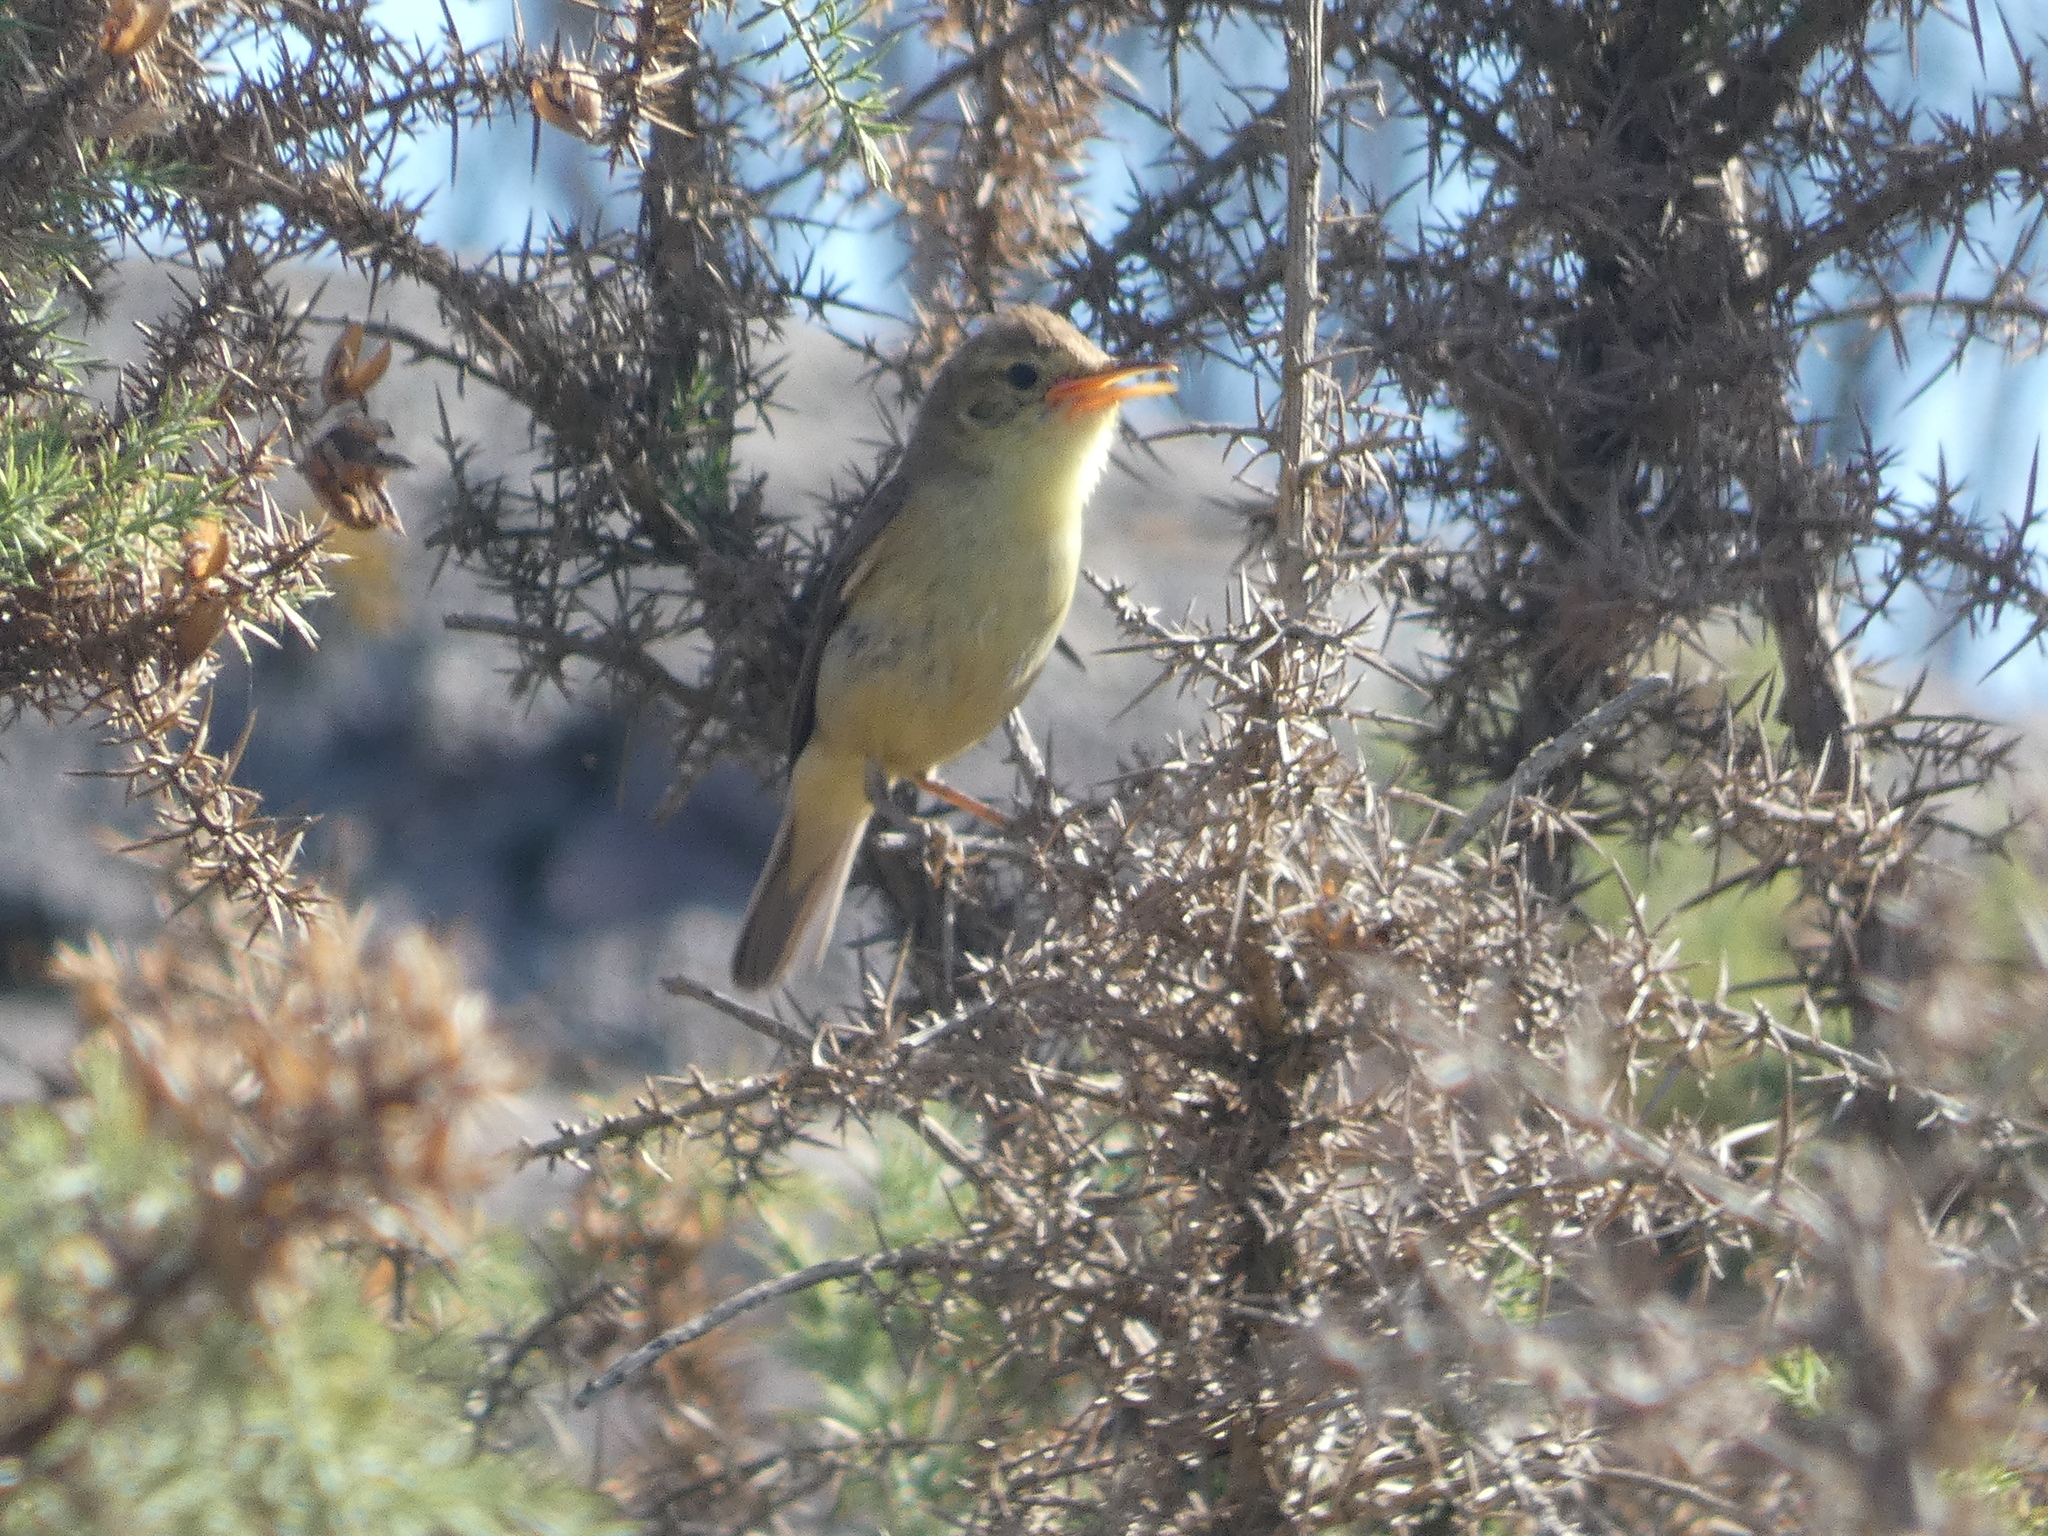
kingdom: Animalia
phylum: Chordata
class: Aves
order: Passeriformes
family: Acrocephalidae
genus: Hippolais
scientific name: Hippolais polyglotta
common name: Melodious warbler
